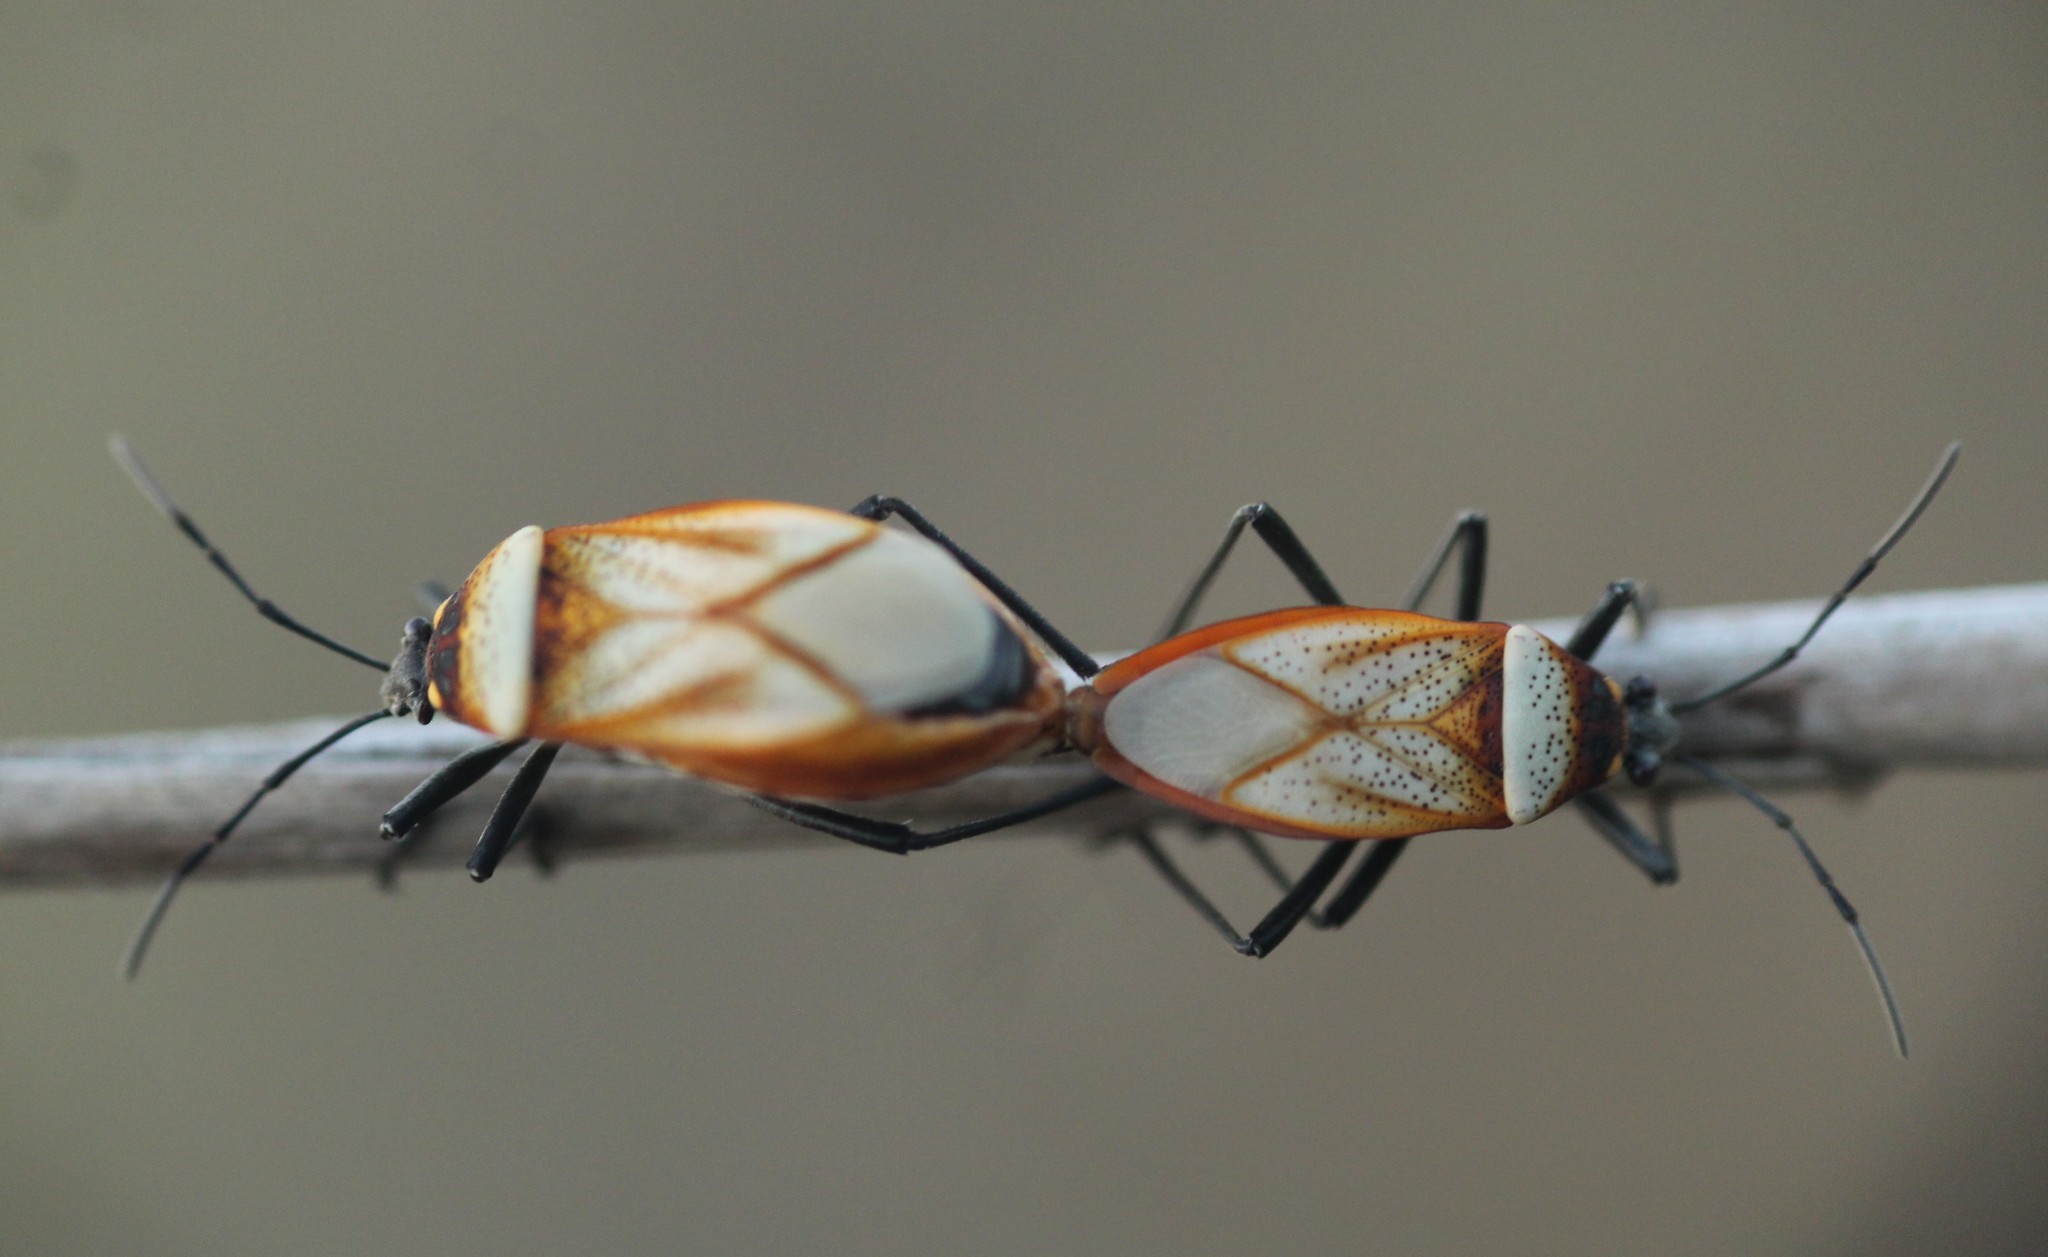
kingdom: Animalia
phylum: Arthropoda
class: Insecta
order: Hemiptera
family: Largidae
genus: Largus
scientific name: Largus trochanterus
